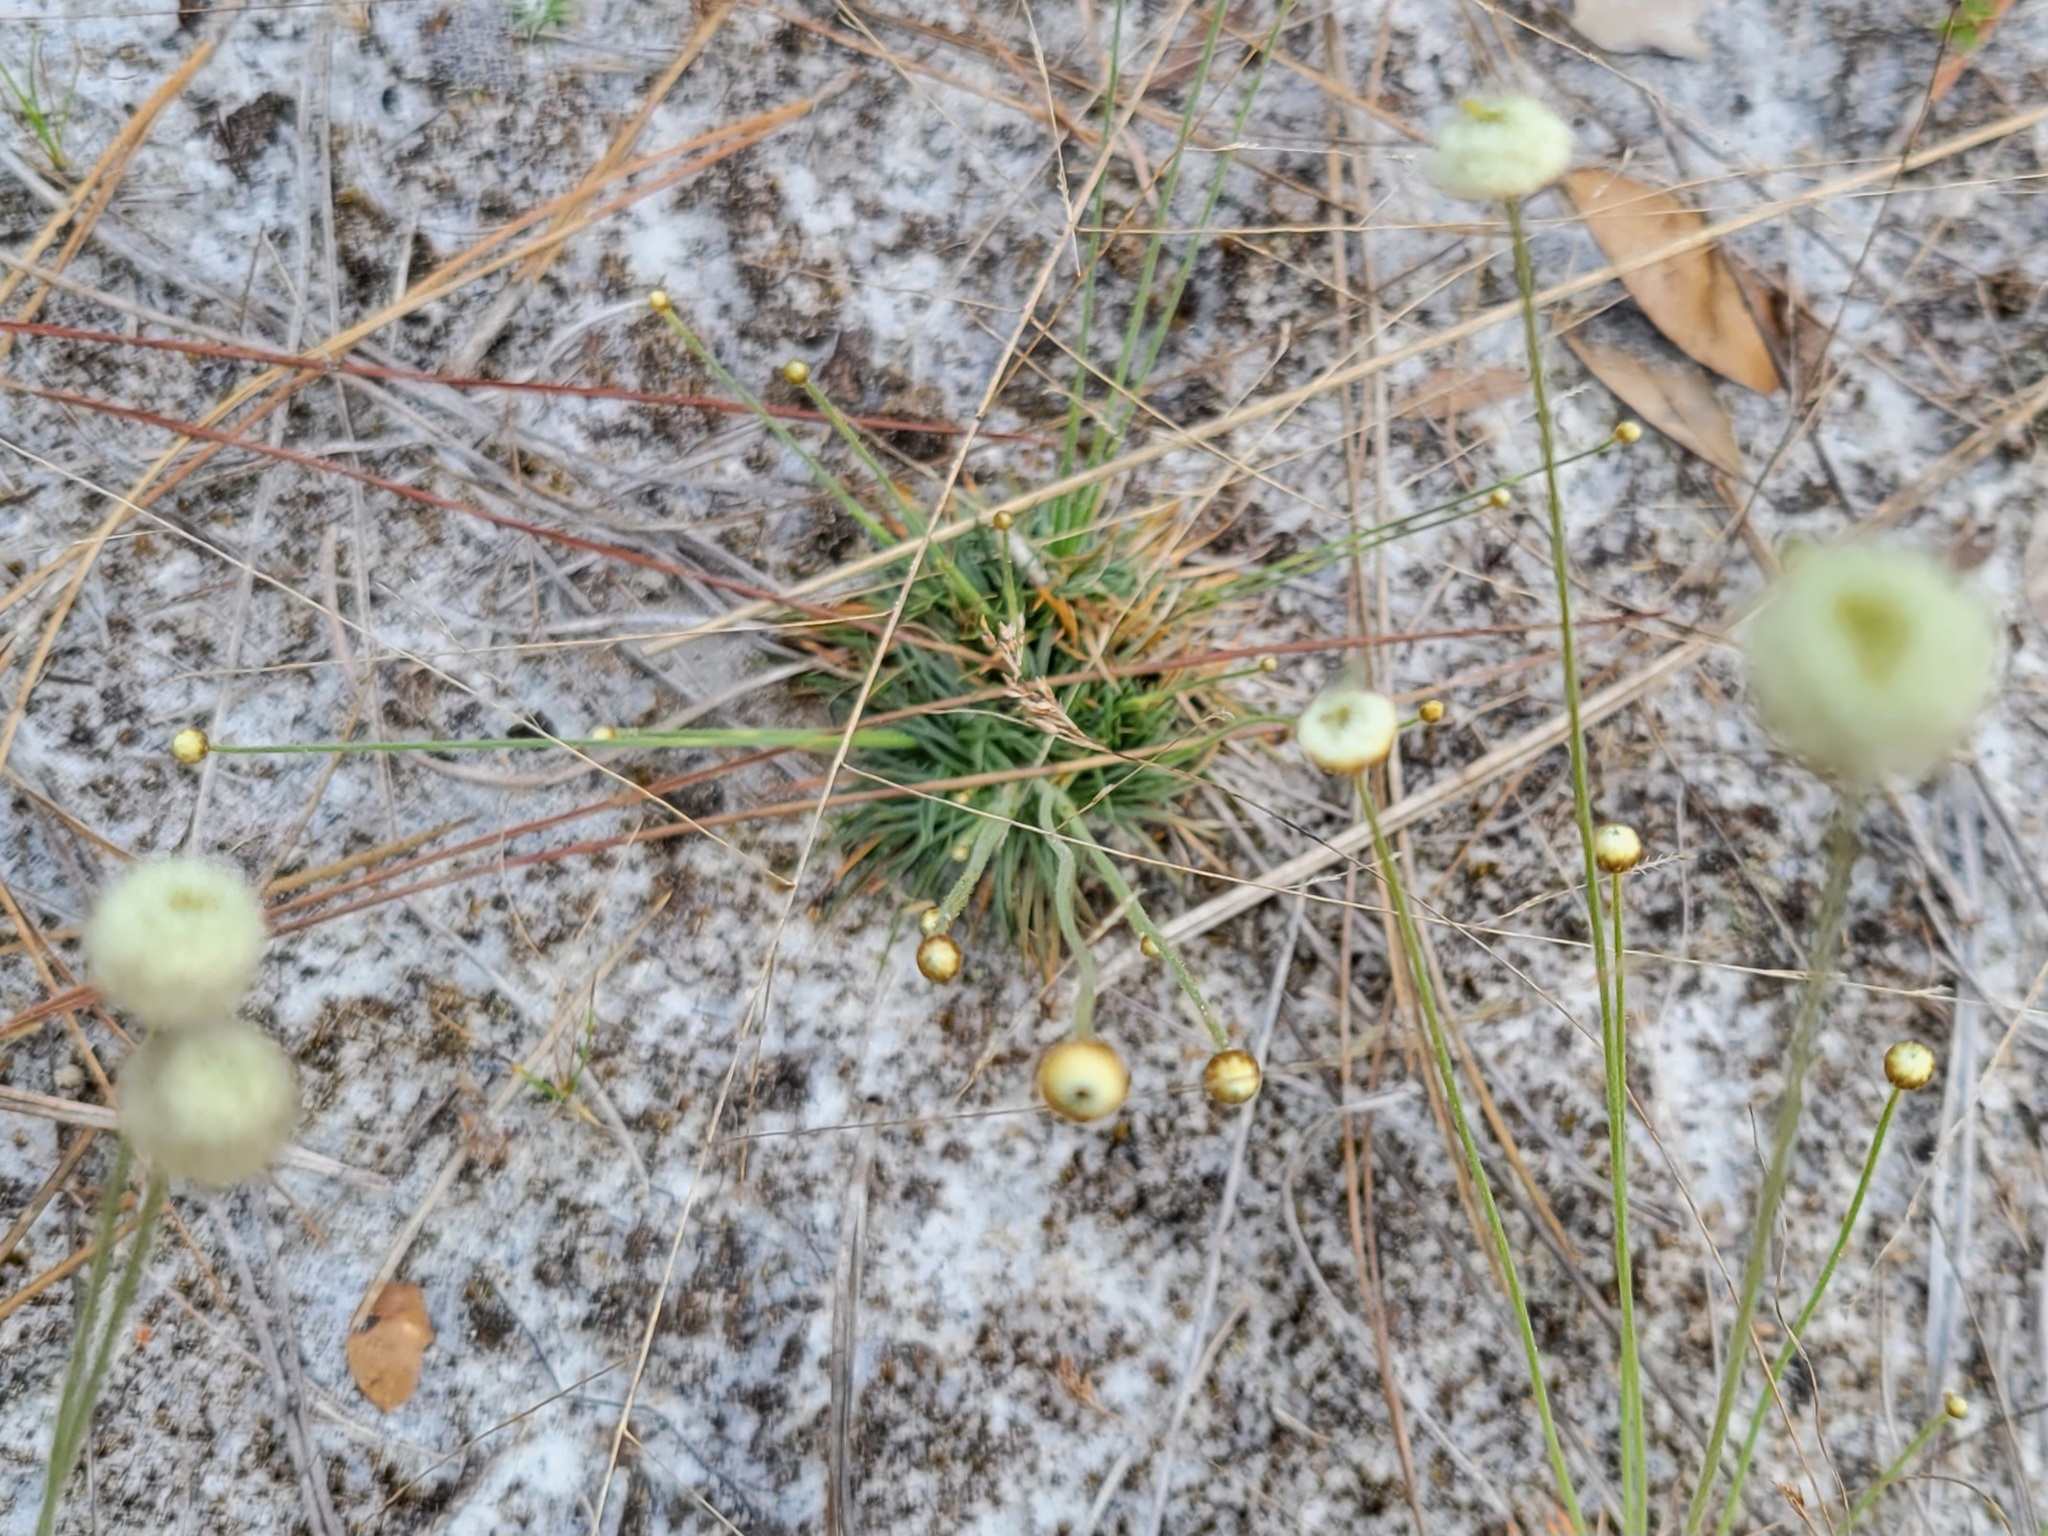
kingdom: Plantae
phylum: Tracheophyta
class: Liliopsida
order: Poales
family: Eriocaulaceae
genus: Syngonanthus
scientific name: Syngonanthus flavidulus
